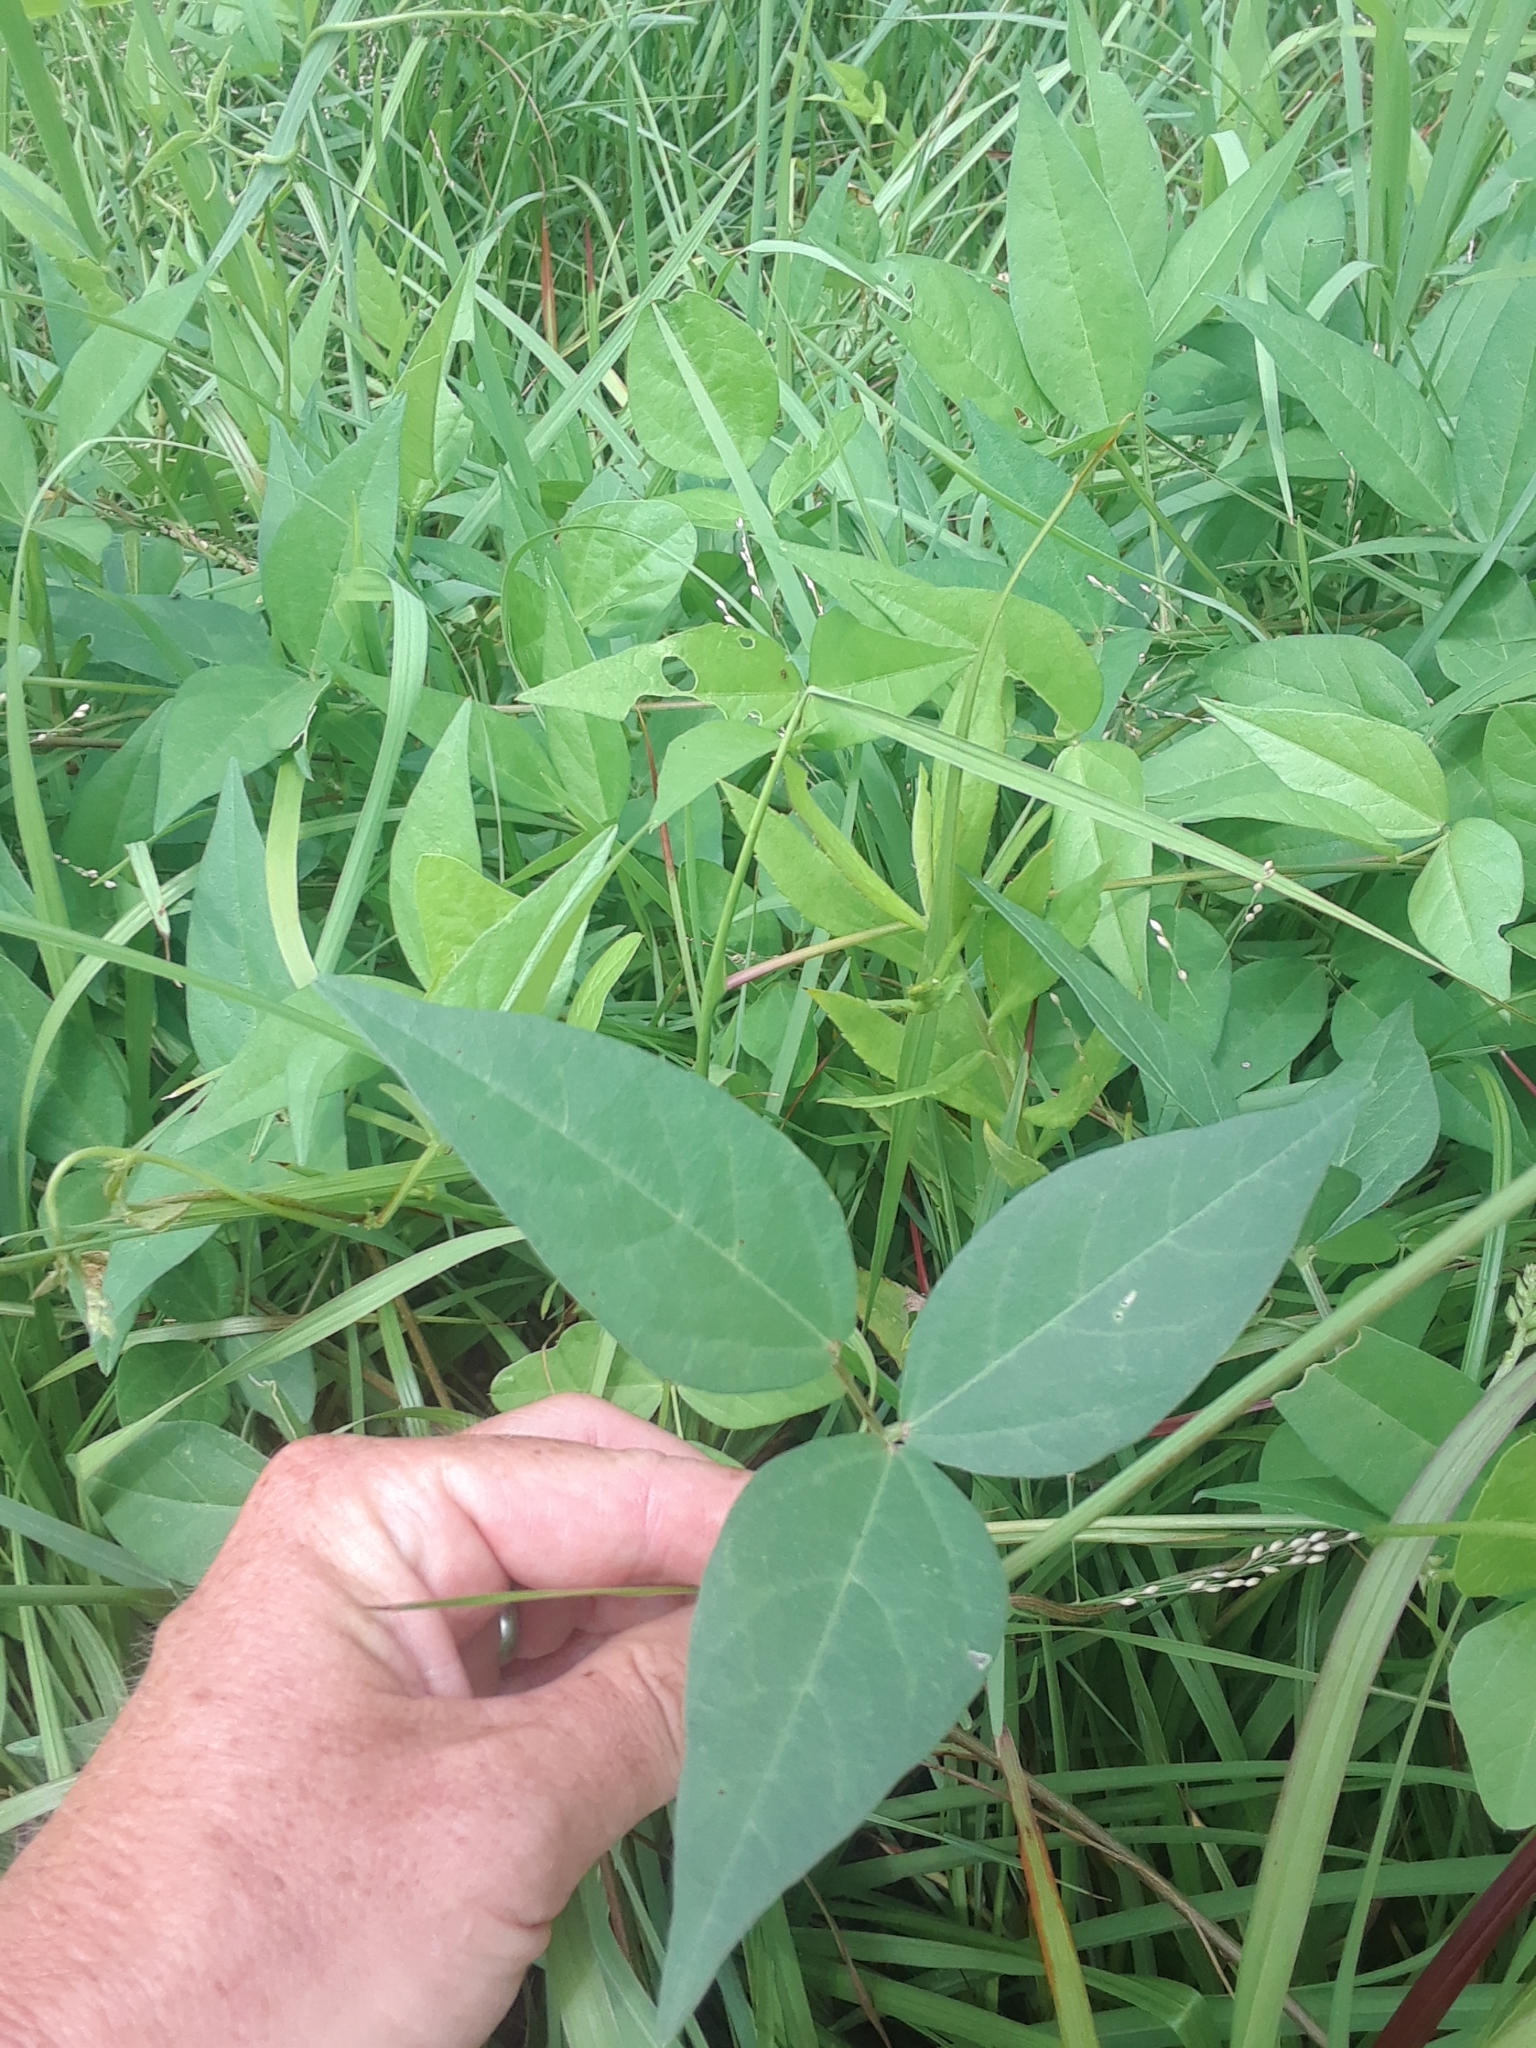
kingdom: Plantae
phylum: Tracheophyta
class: Magnoliopsida
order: Fabales
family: Fabaceae
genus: Vigna
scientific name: Vigna luteola
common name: Hairypod cowpea
